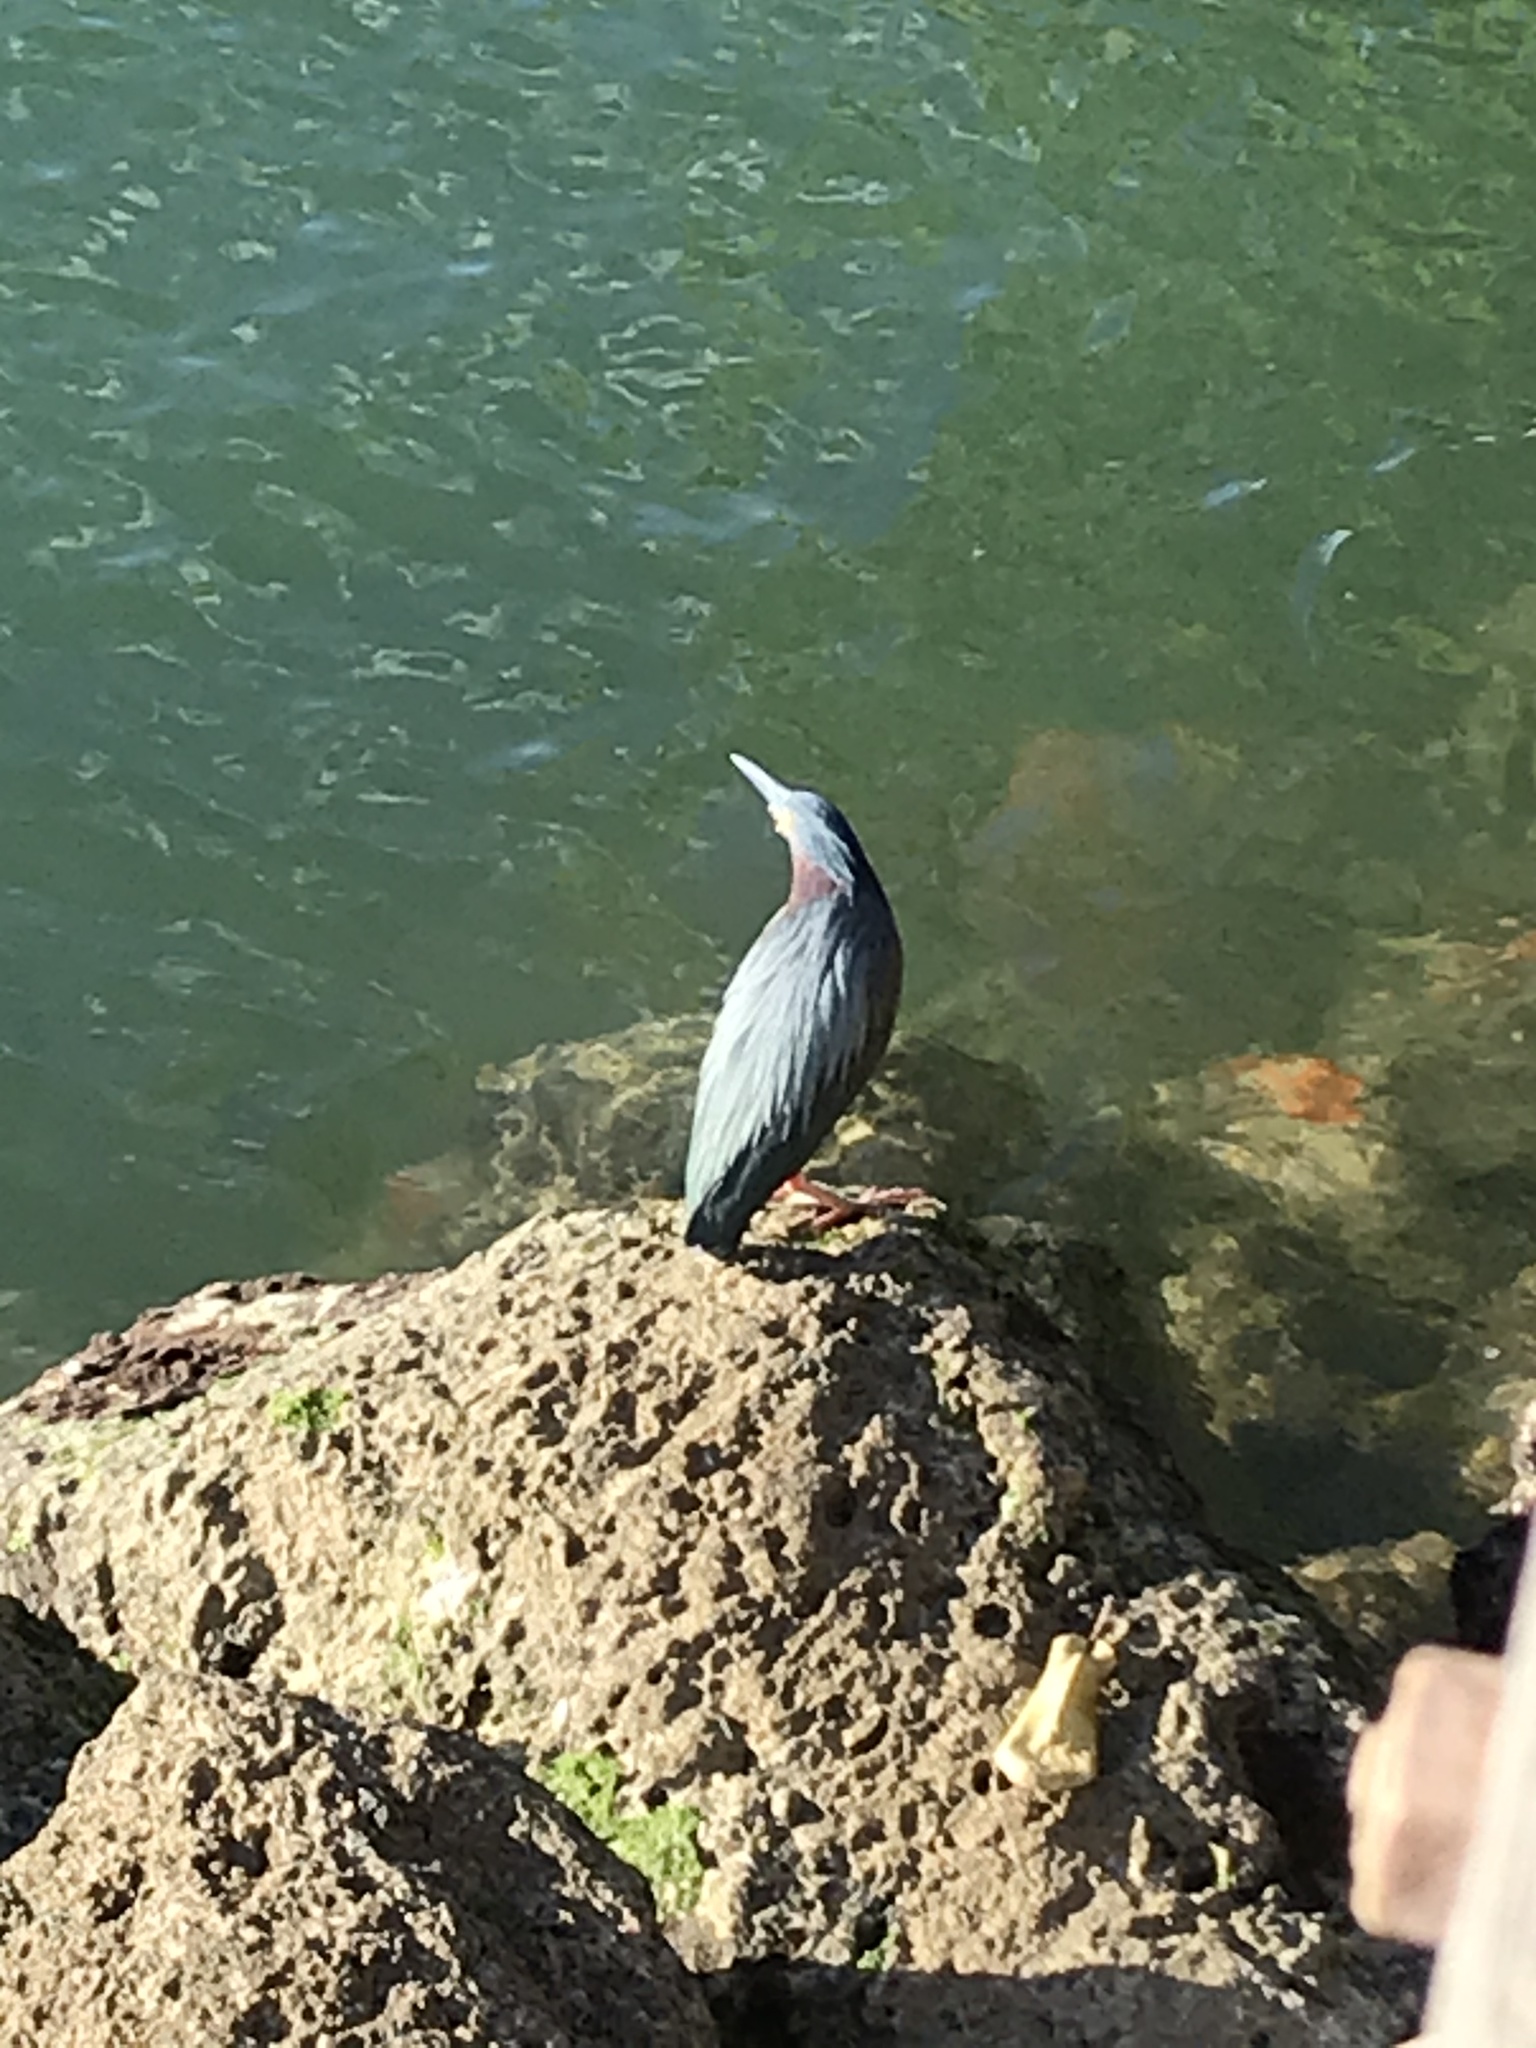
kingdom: Animalia
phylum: Chordata
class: Aves
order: Pelecaniformes
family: Ardeidae
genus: Butorides
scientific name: Butorides virescens
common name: Green heron
